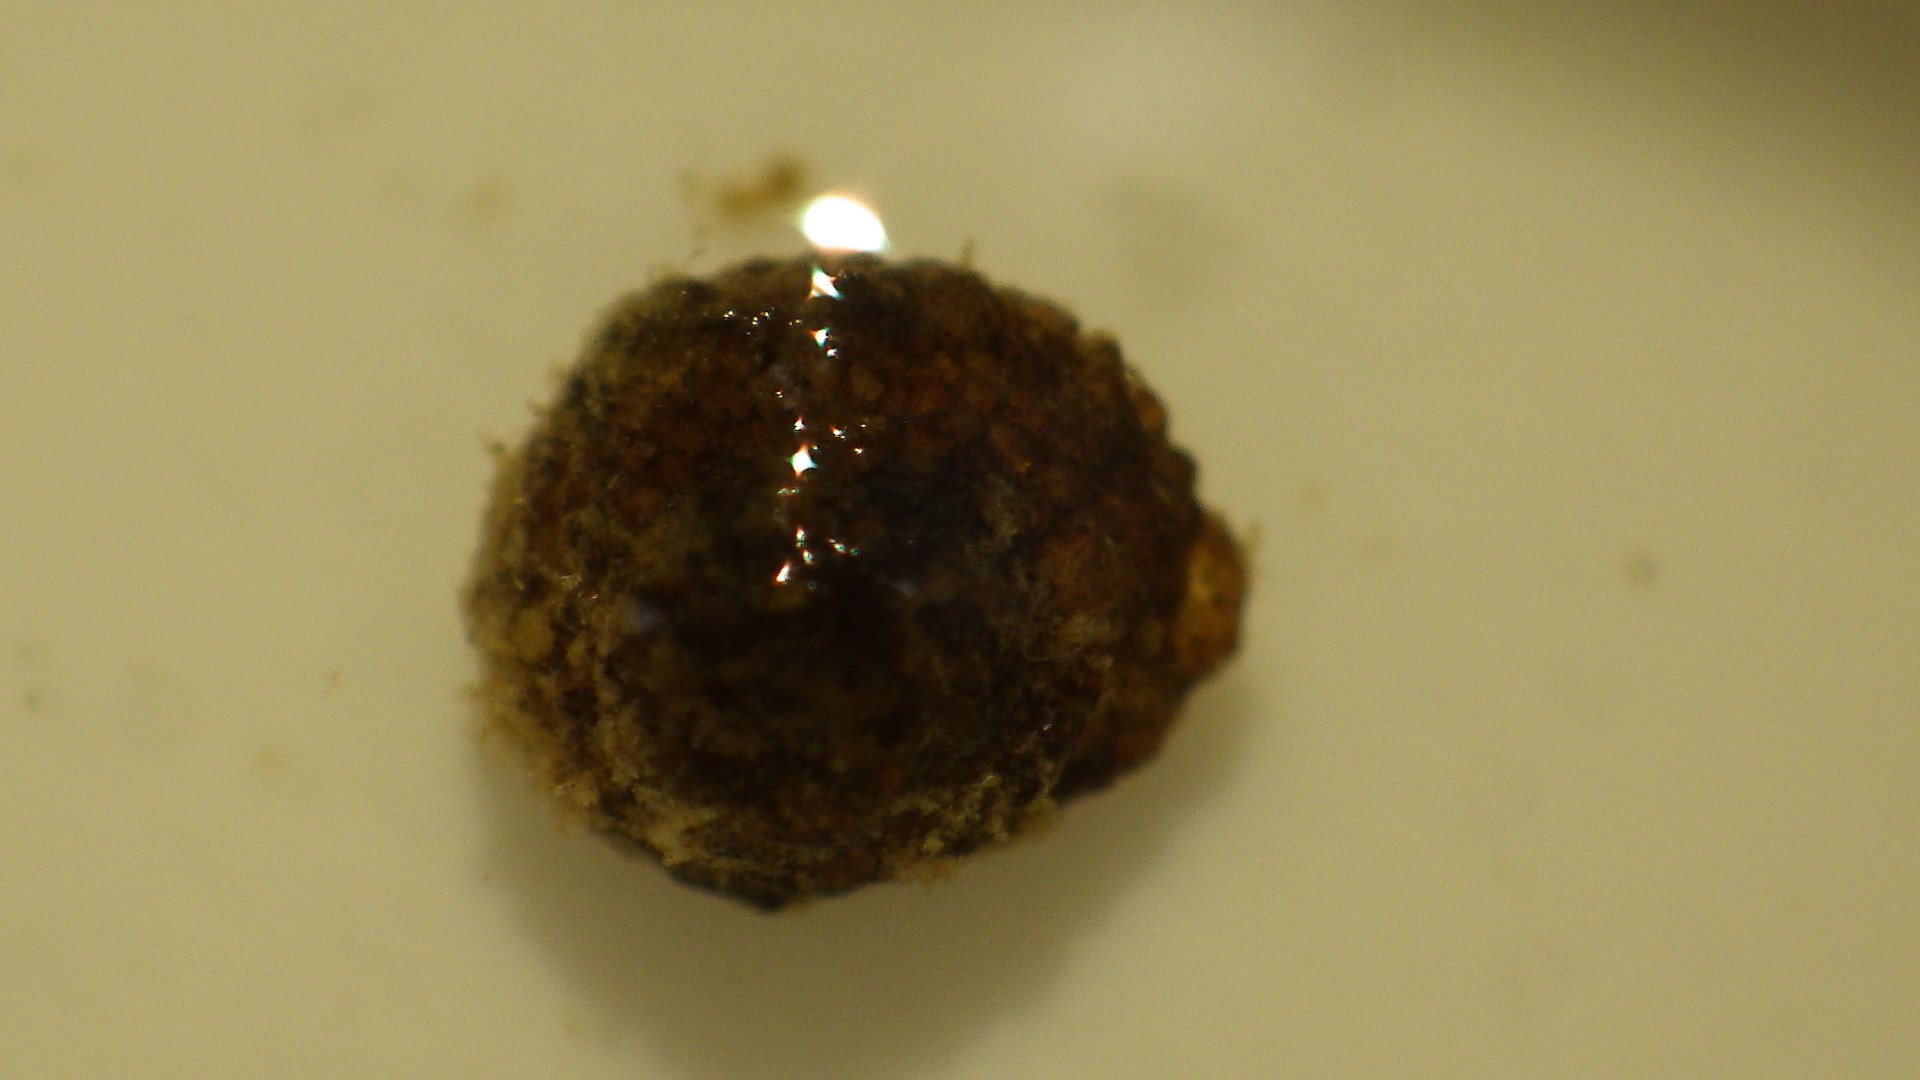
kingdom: Animalia
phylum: Arthropoda
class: Insecta
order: Trichoptera
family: Helicopsychidae
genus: Helicopsyche
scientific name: Helicopsyche borealis
